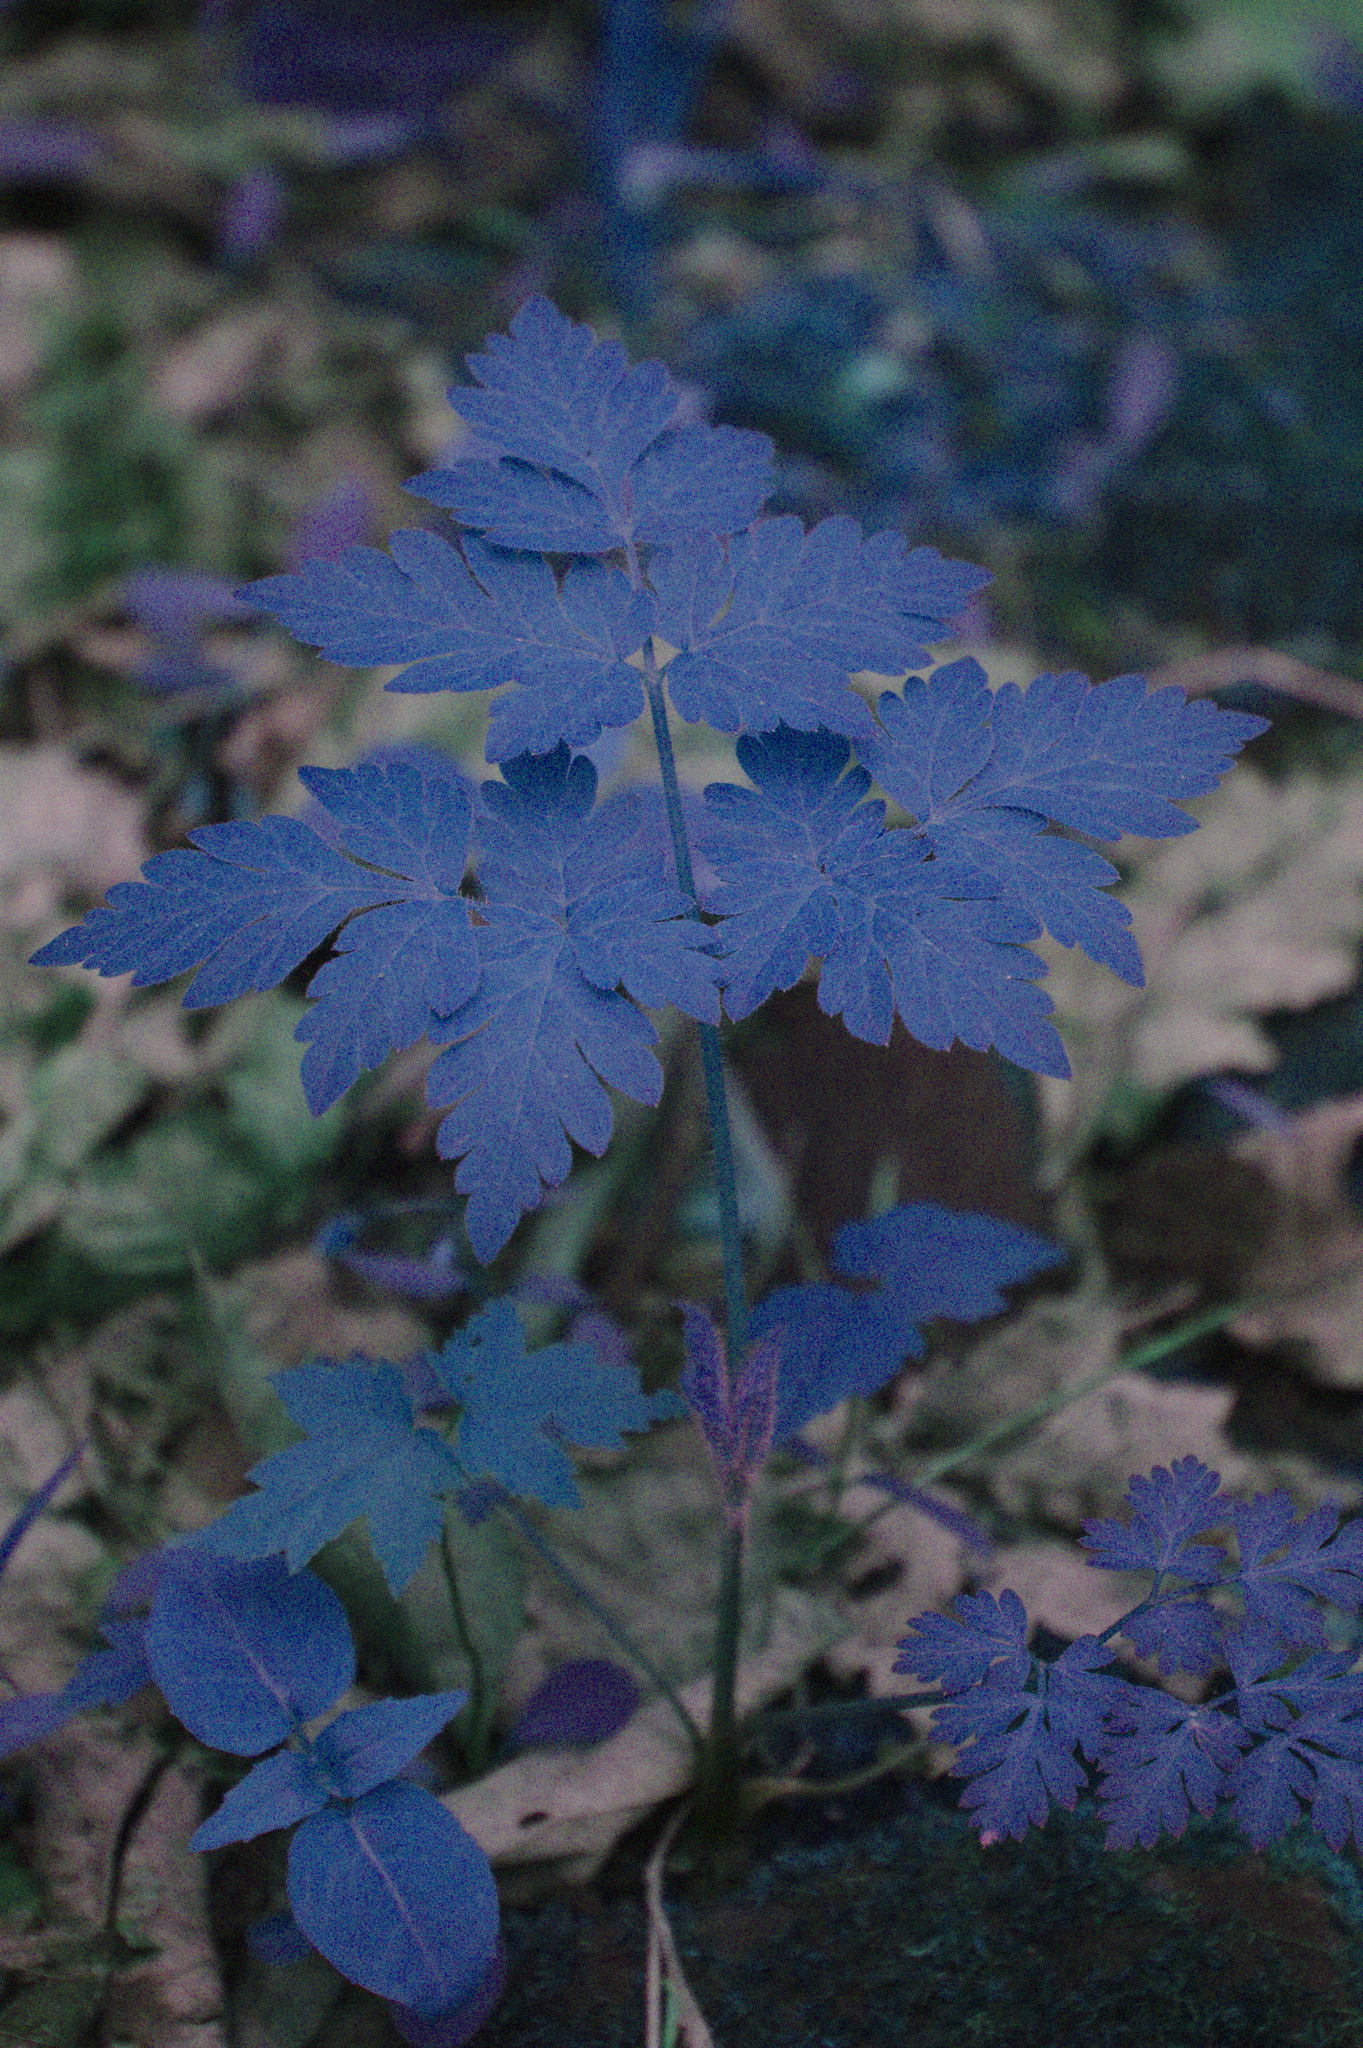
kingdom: Plantae
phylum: Tracheophyta
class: Magnoliopsida
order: Apiales
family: Apiaceae
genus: Osmorhiza
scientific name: Osmorhiza claytonii
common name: Hairy sweet cicely
